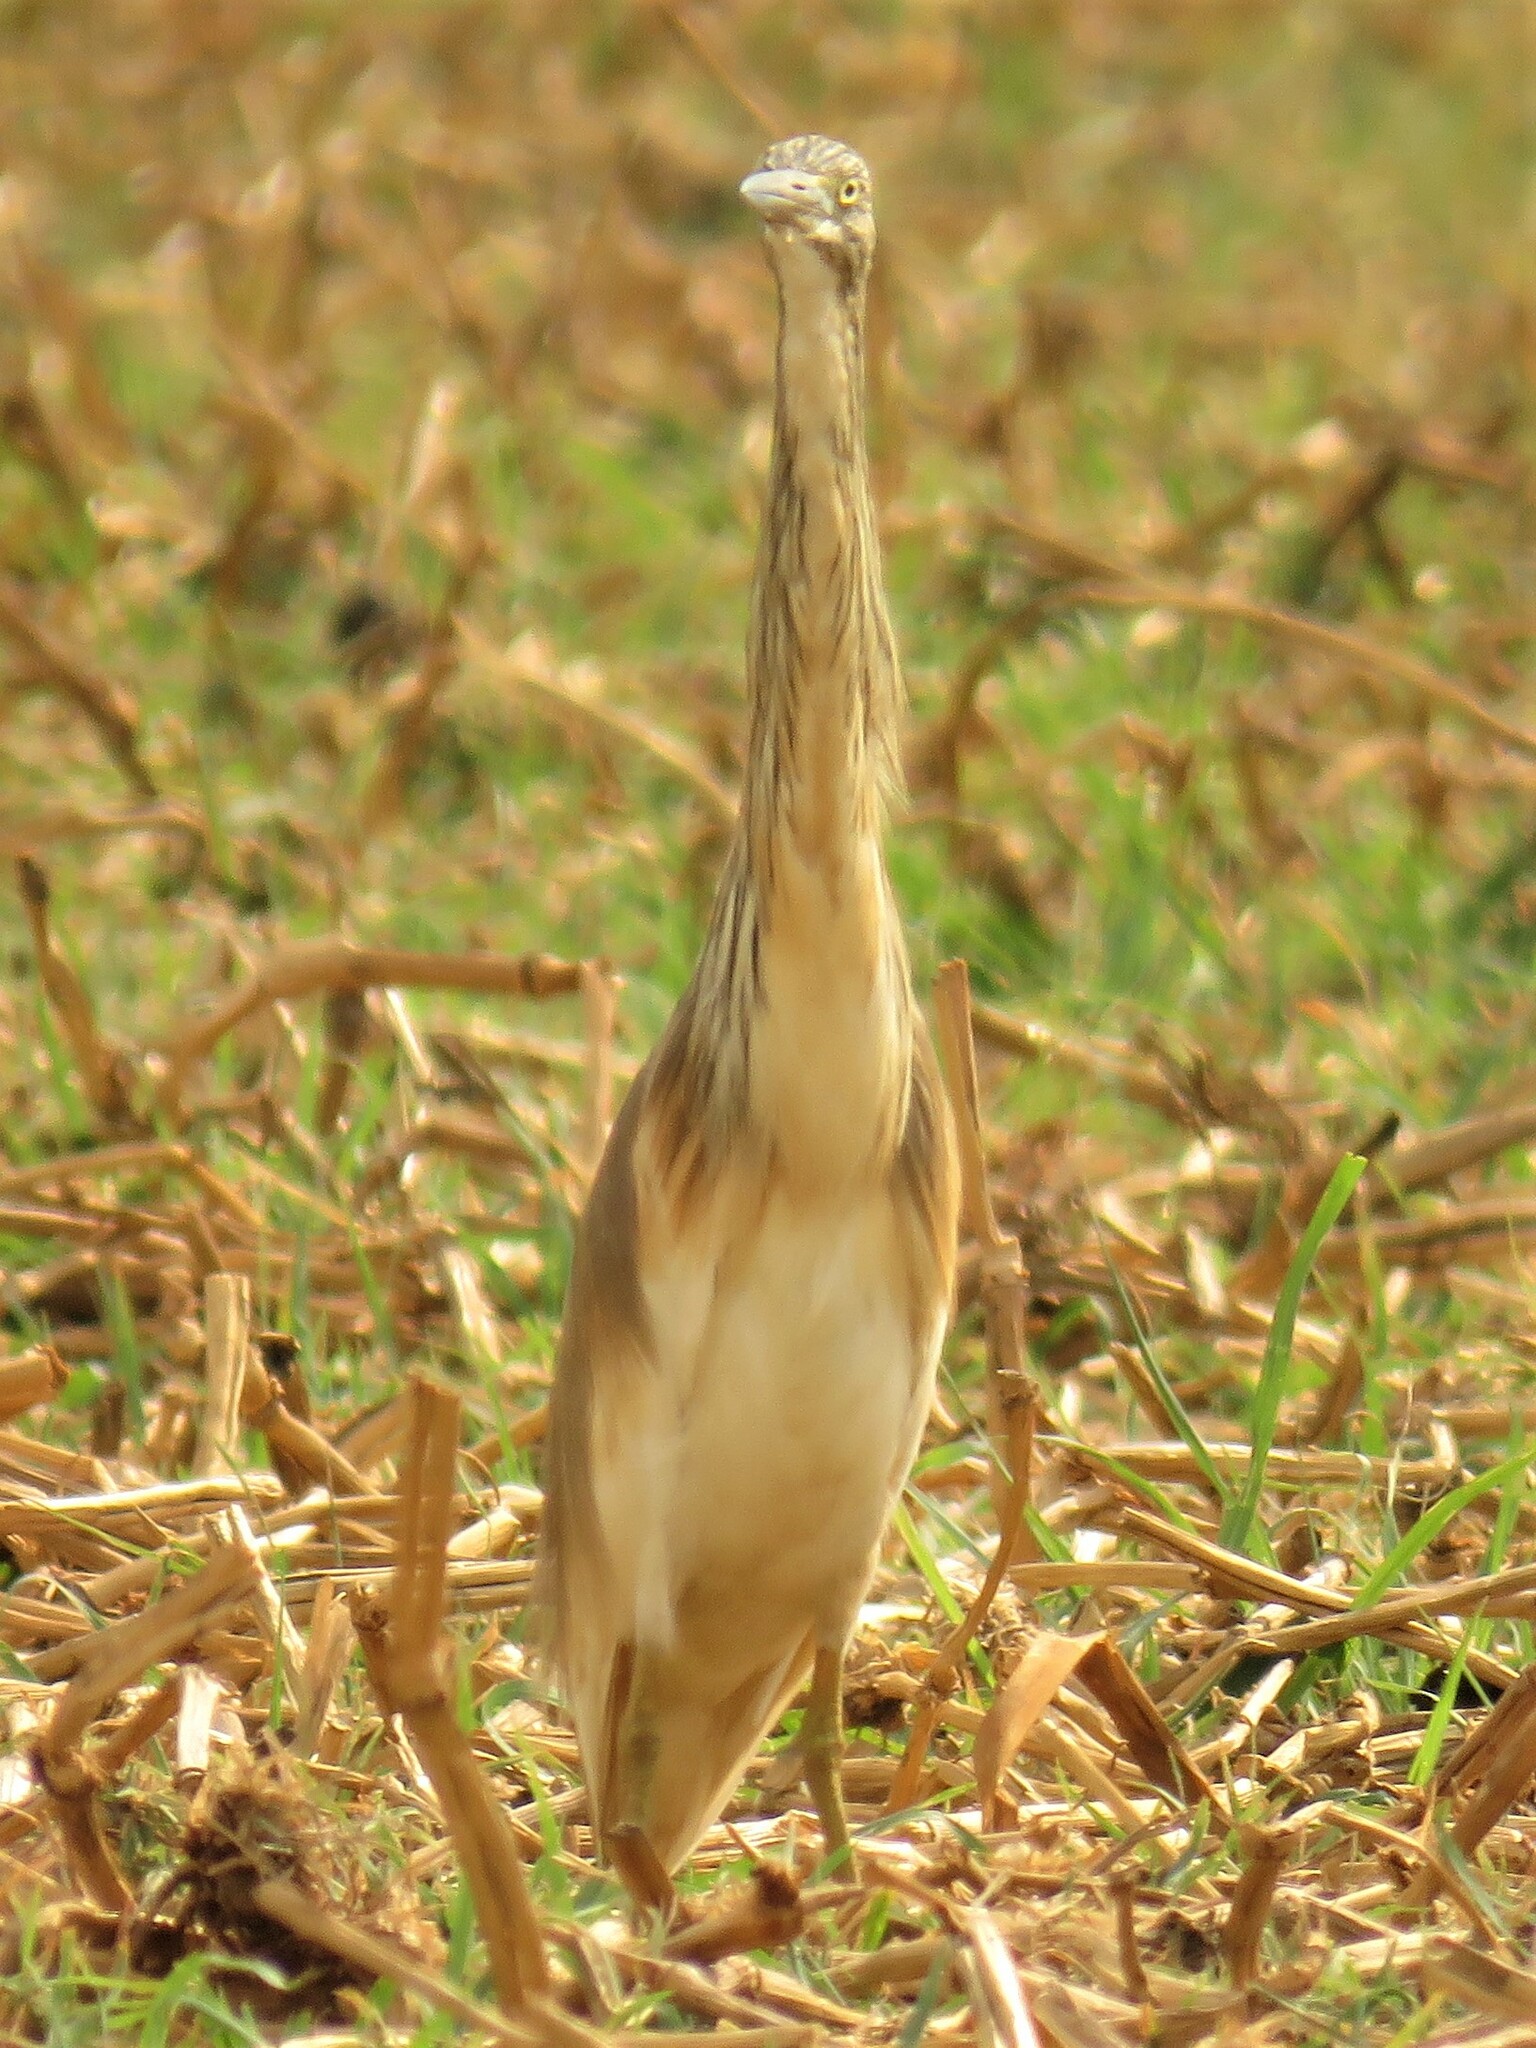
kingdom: Animalia
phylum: Chordata
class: Aves
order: Pelecaniformes
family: Ardeidae
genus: Ardeola
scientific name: Ardeola ralloides
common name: Squacco heron
